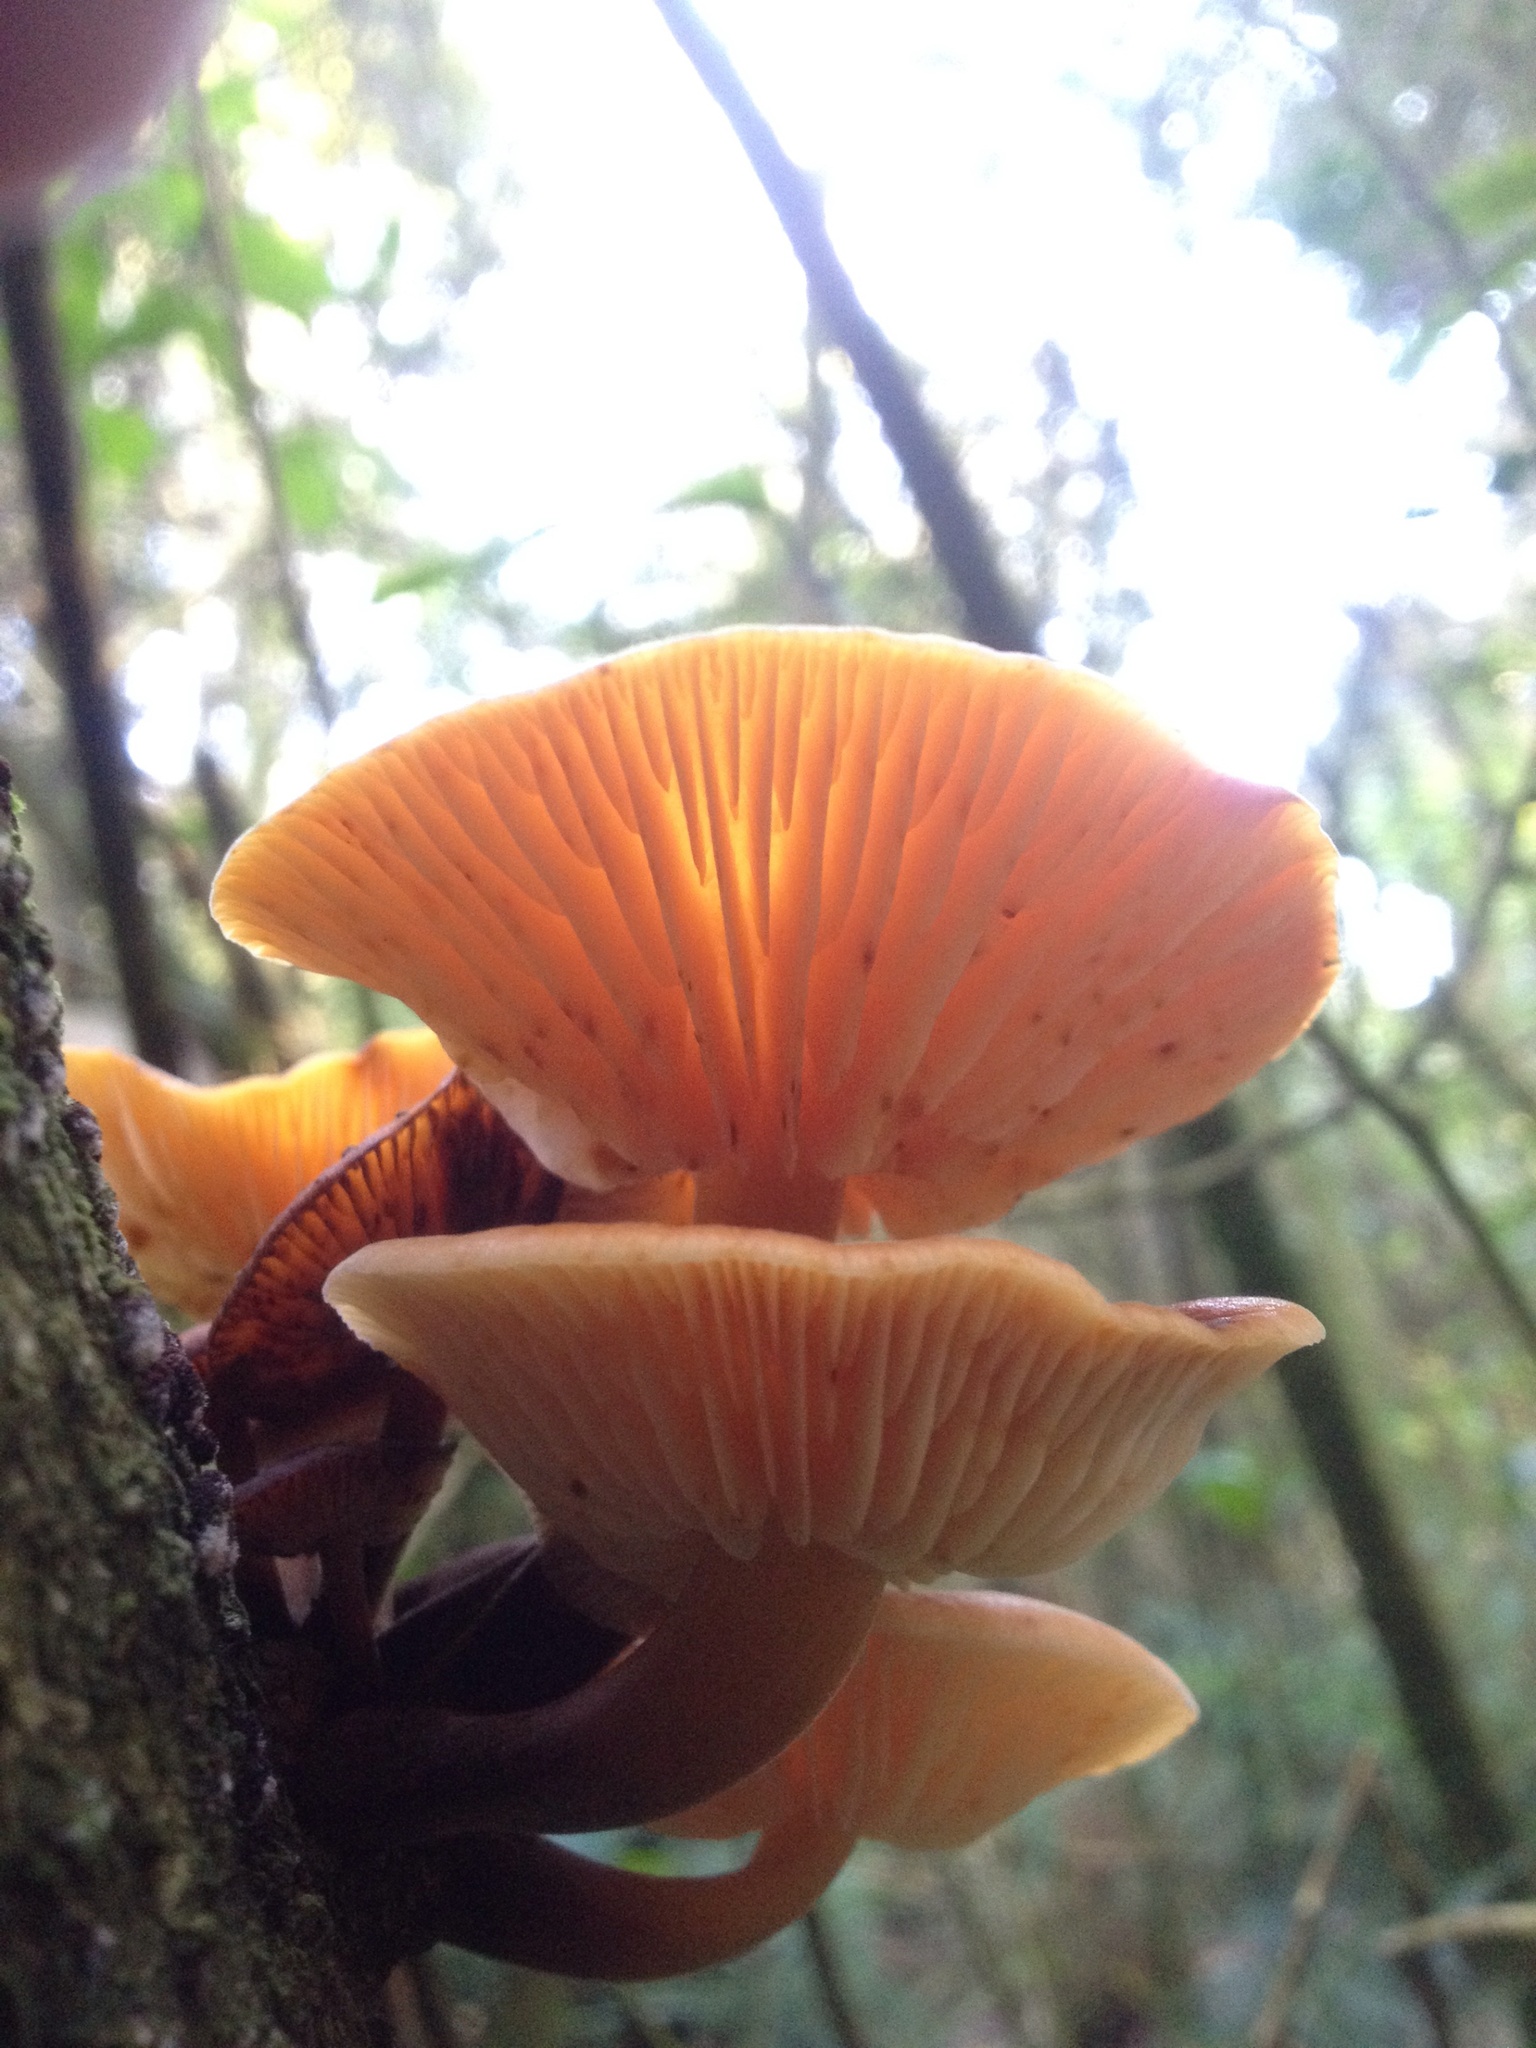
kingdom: Fungi
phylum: Basidiomycota
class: Agaricomycetes
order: Agaricales
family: Physalacriaceae
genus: Flammulina
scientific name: Flammulina velutipes
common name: Velvet shank
